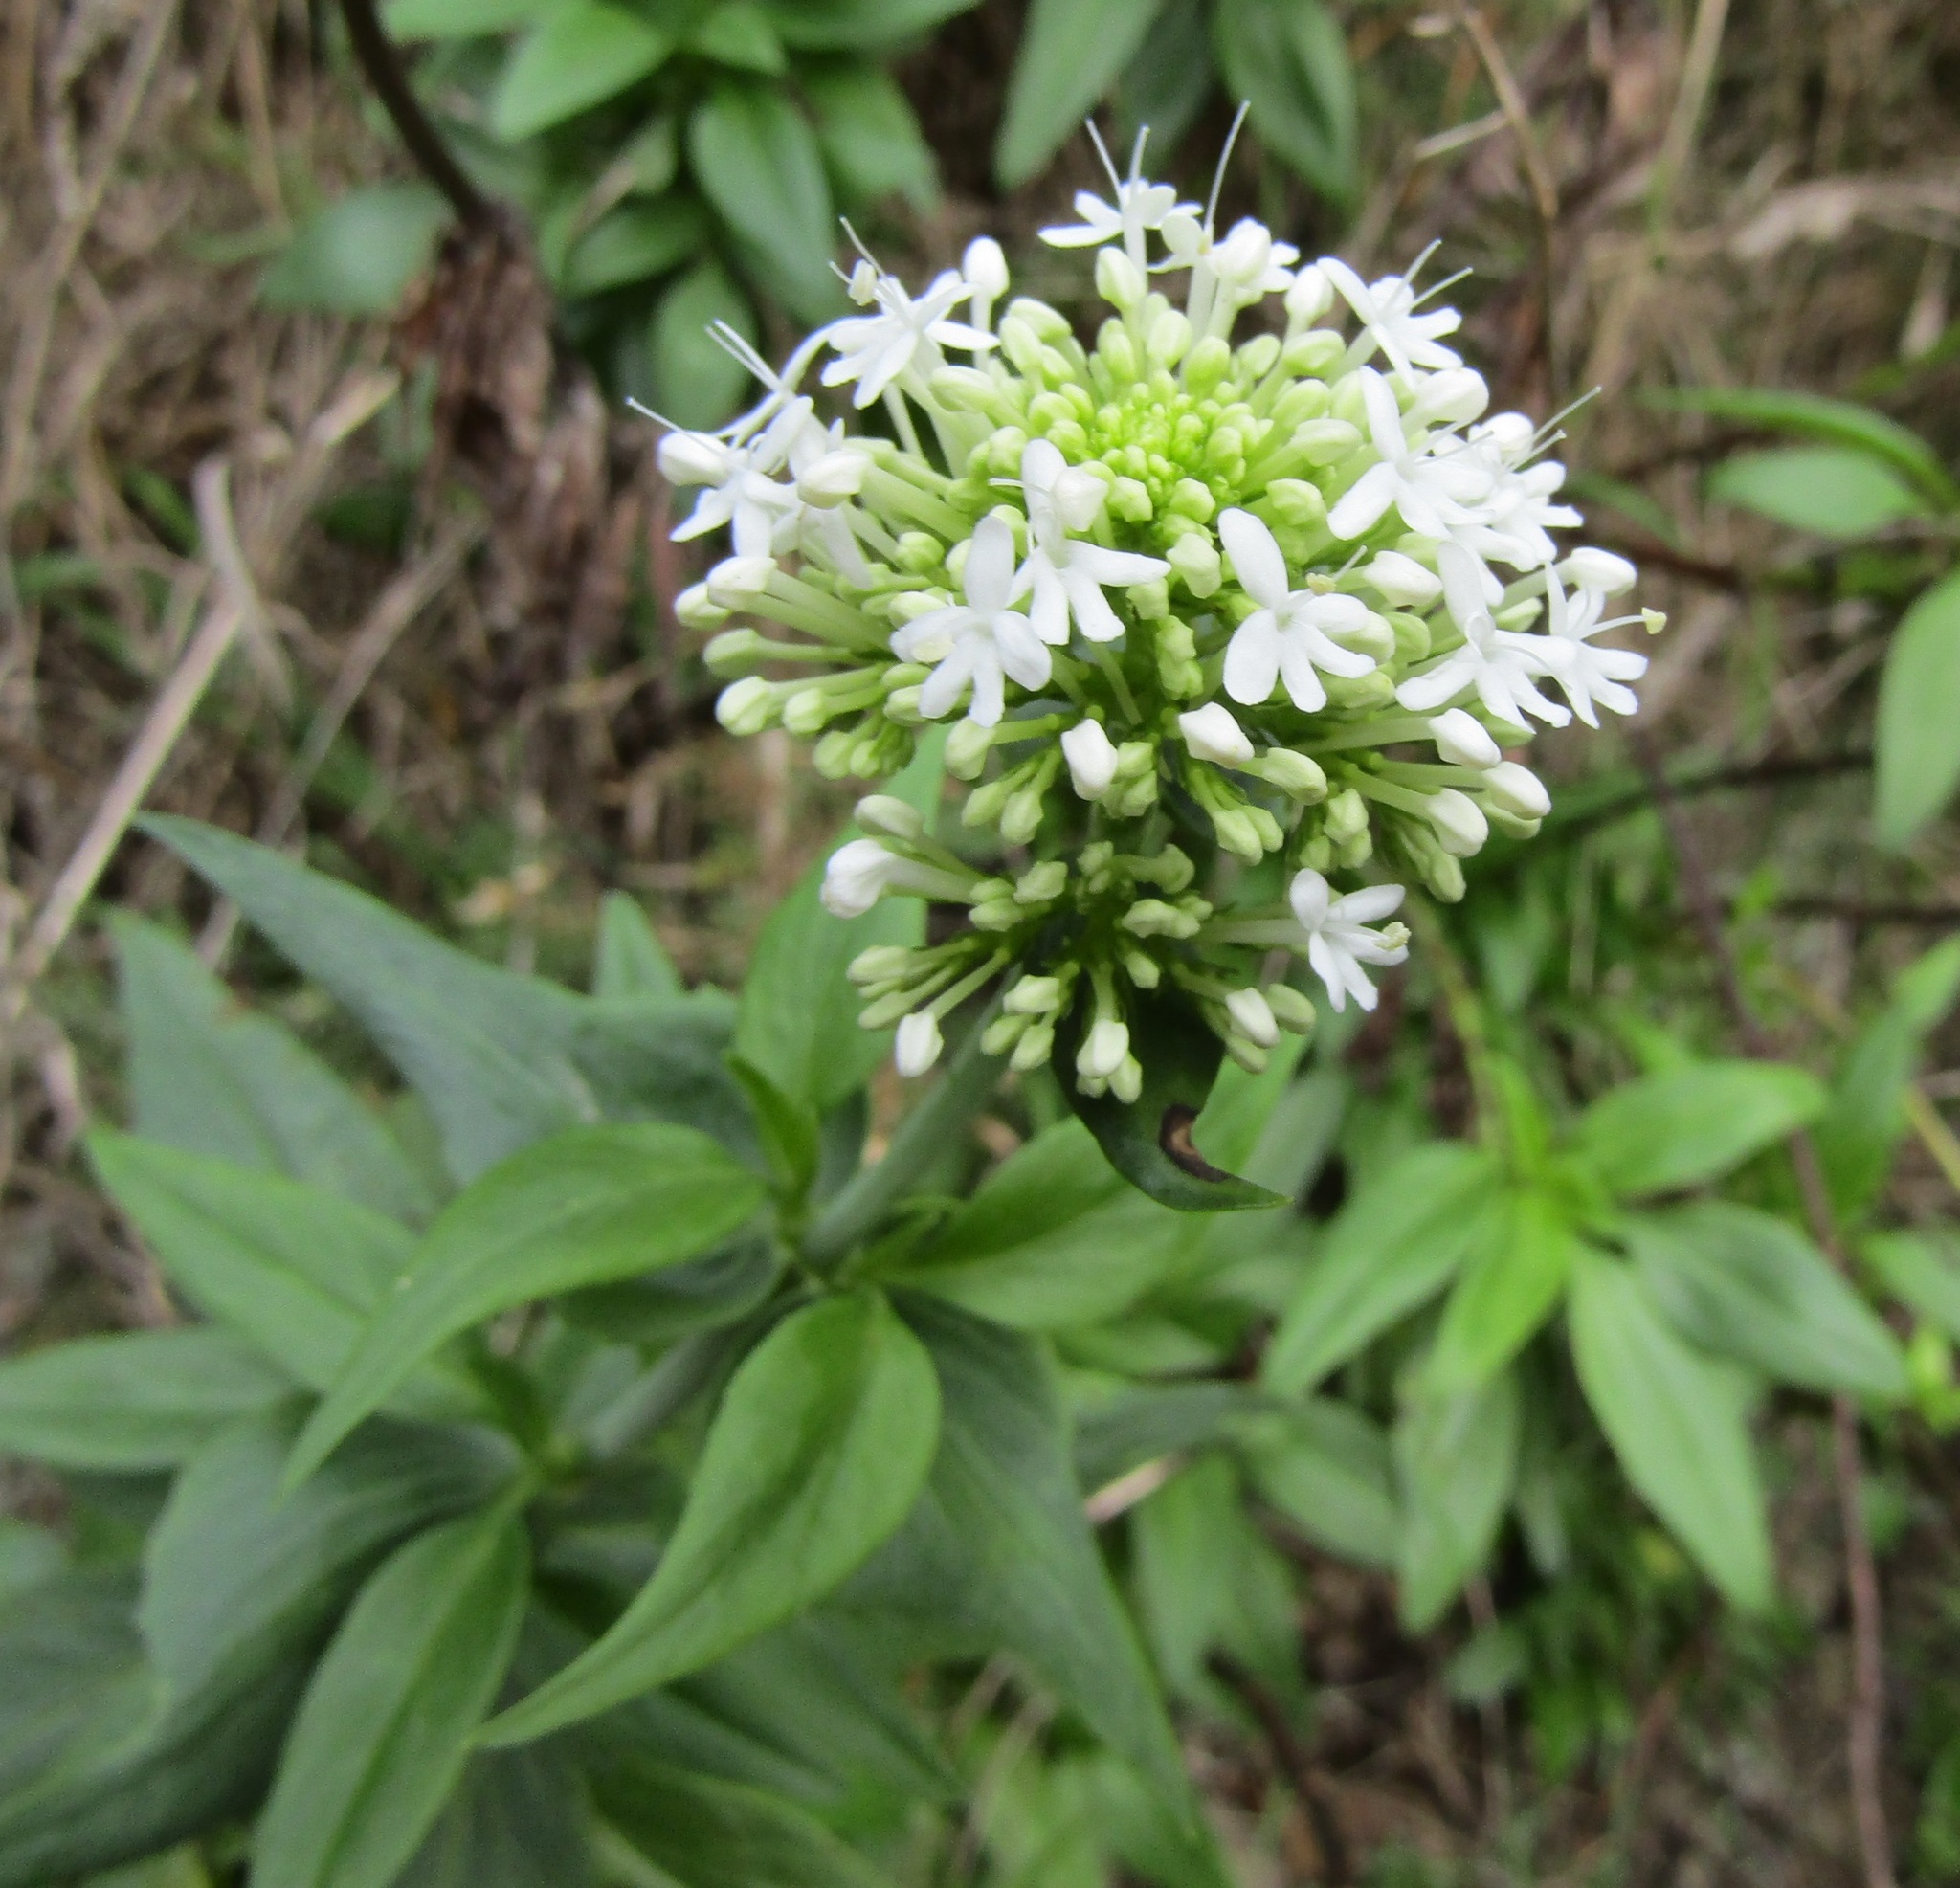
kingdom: Plantae
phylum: Tracheophyta
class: Magnoliopsida
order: Dipsacales
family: Caprifoliaceae
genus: Centranthus
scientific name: Centranthus ruber
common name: Red valerian
